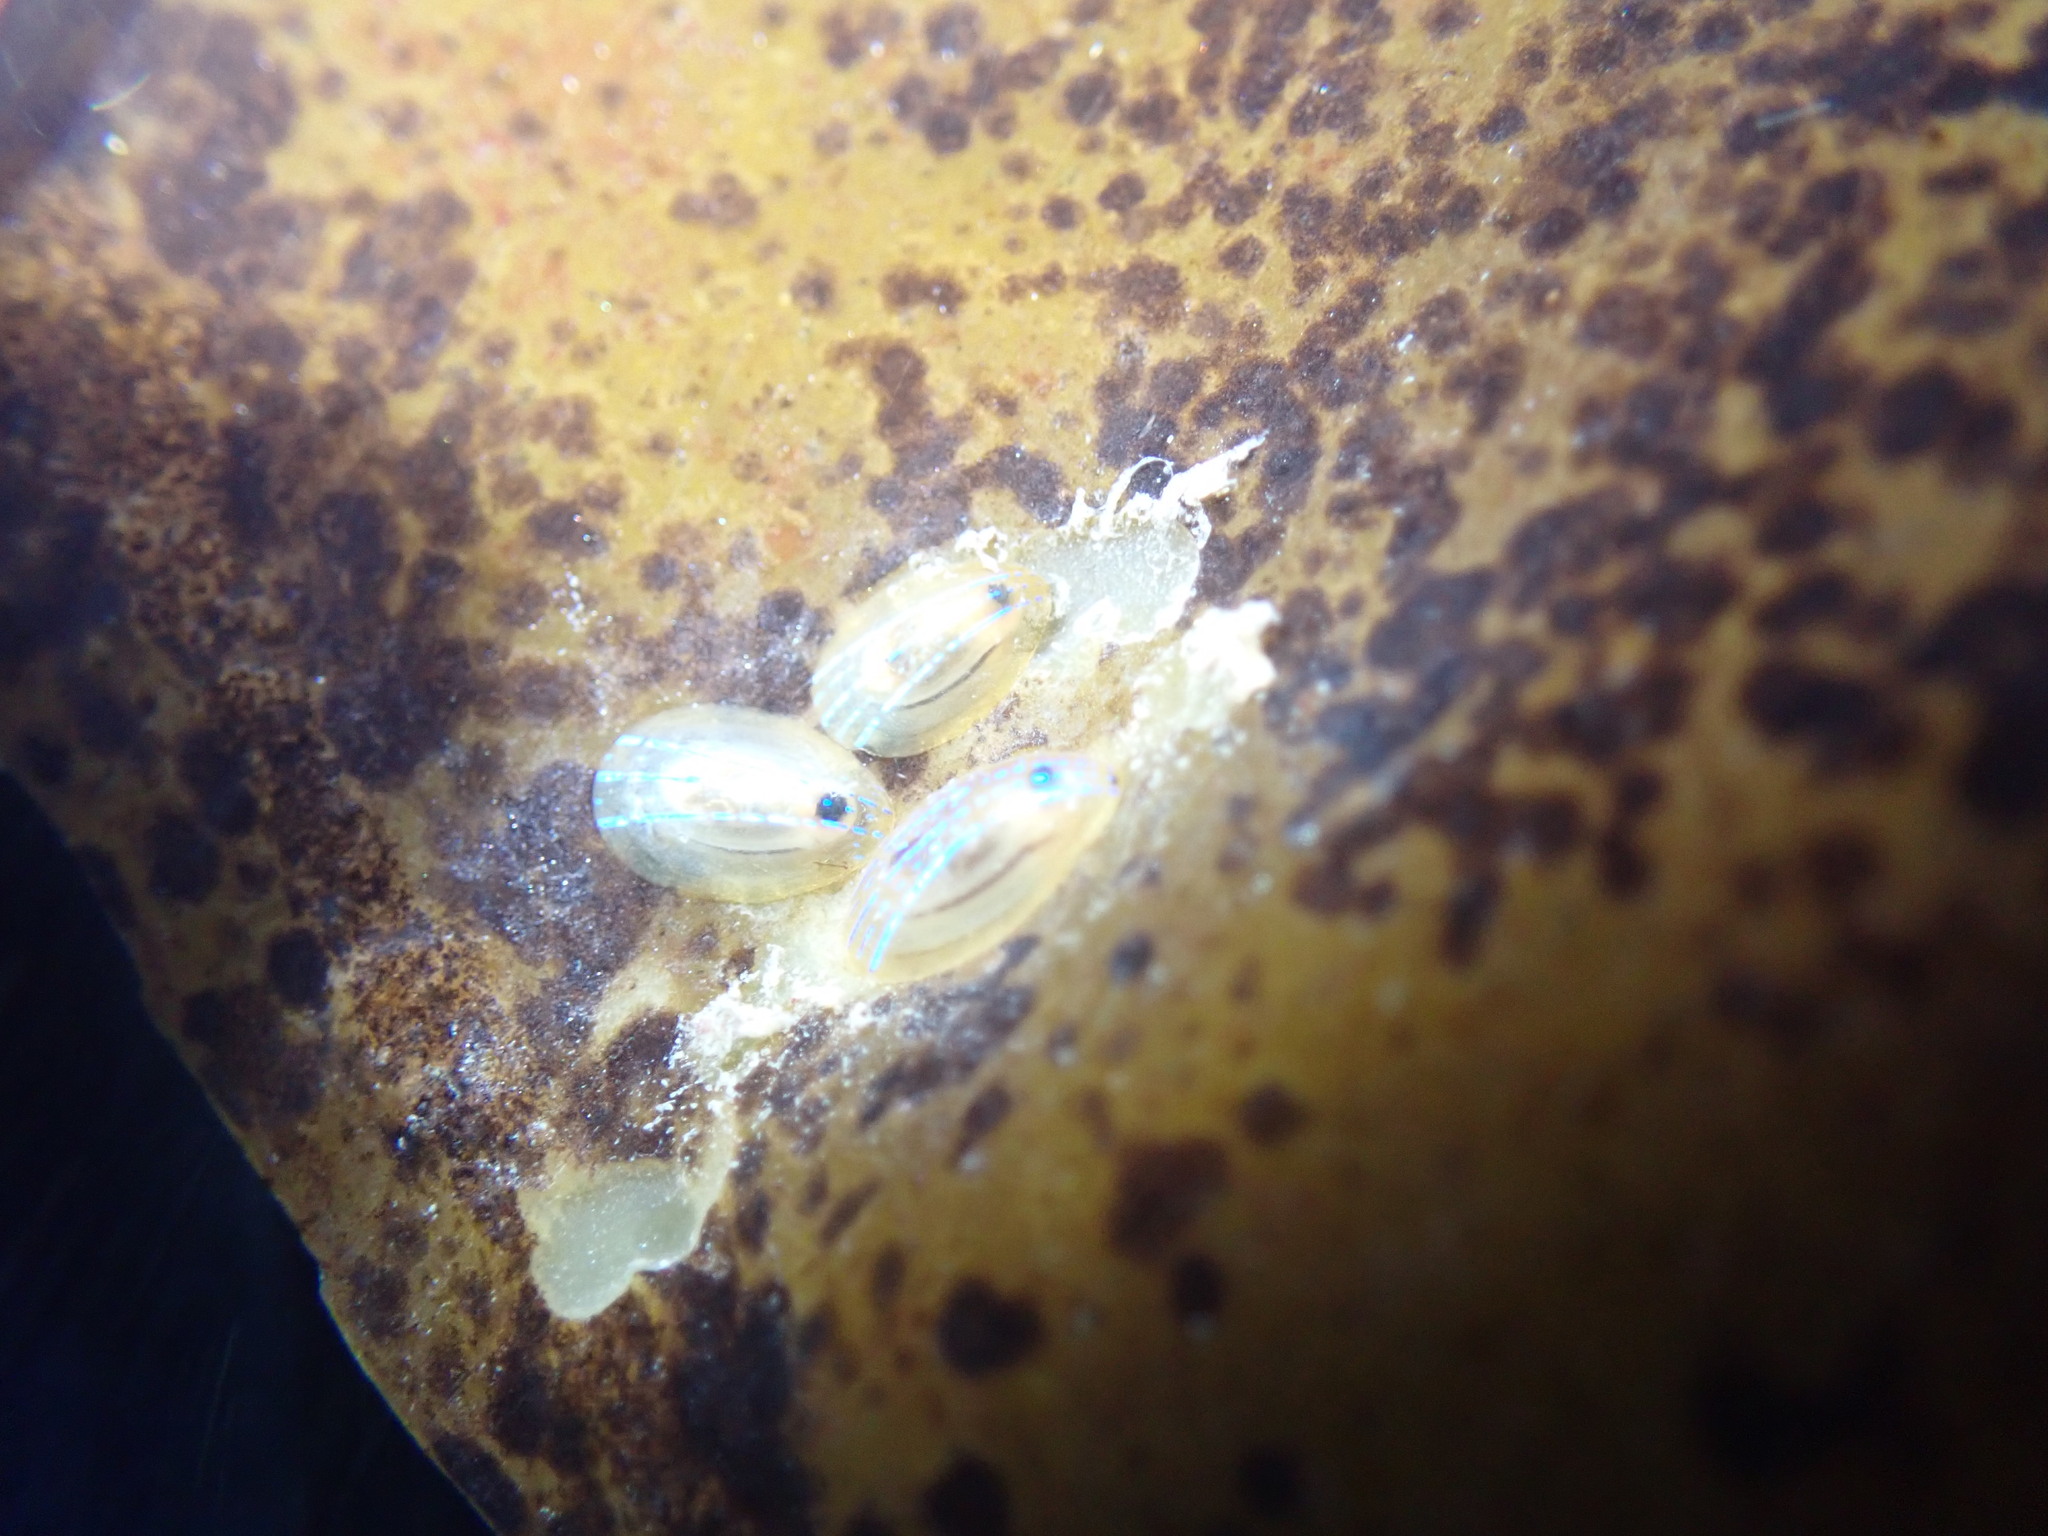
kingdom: Animalia
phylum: Mollusca
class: Gastropoda
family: Patellidae
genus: Patella
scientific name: Patella pellucida
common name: Blue-rayed limpet
